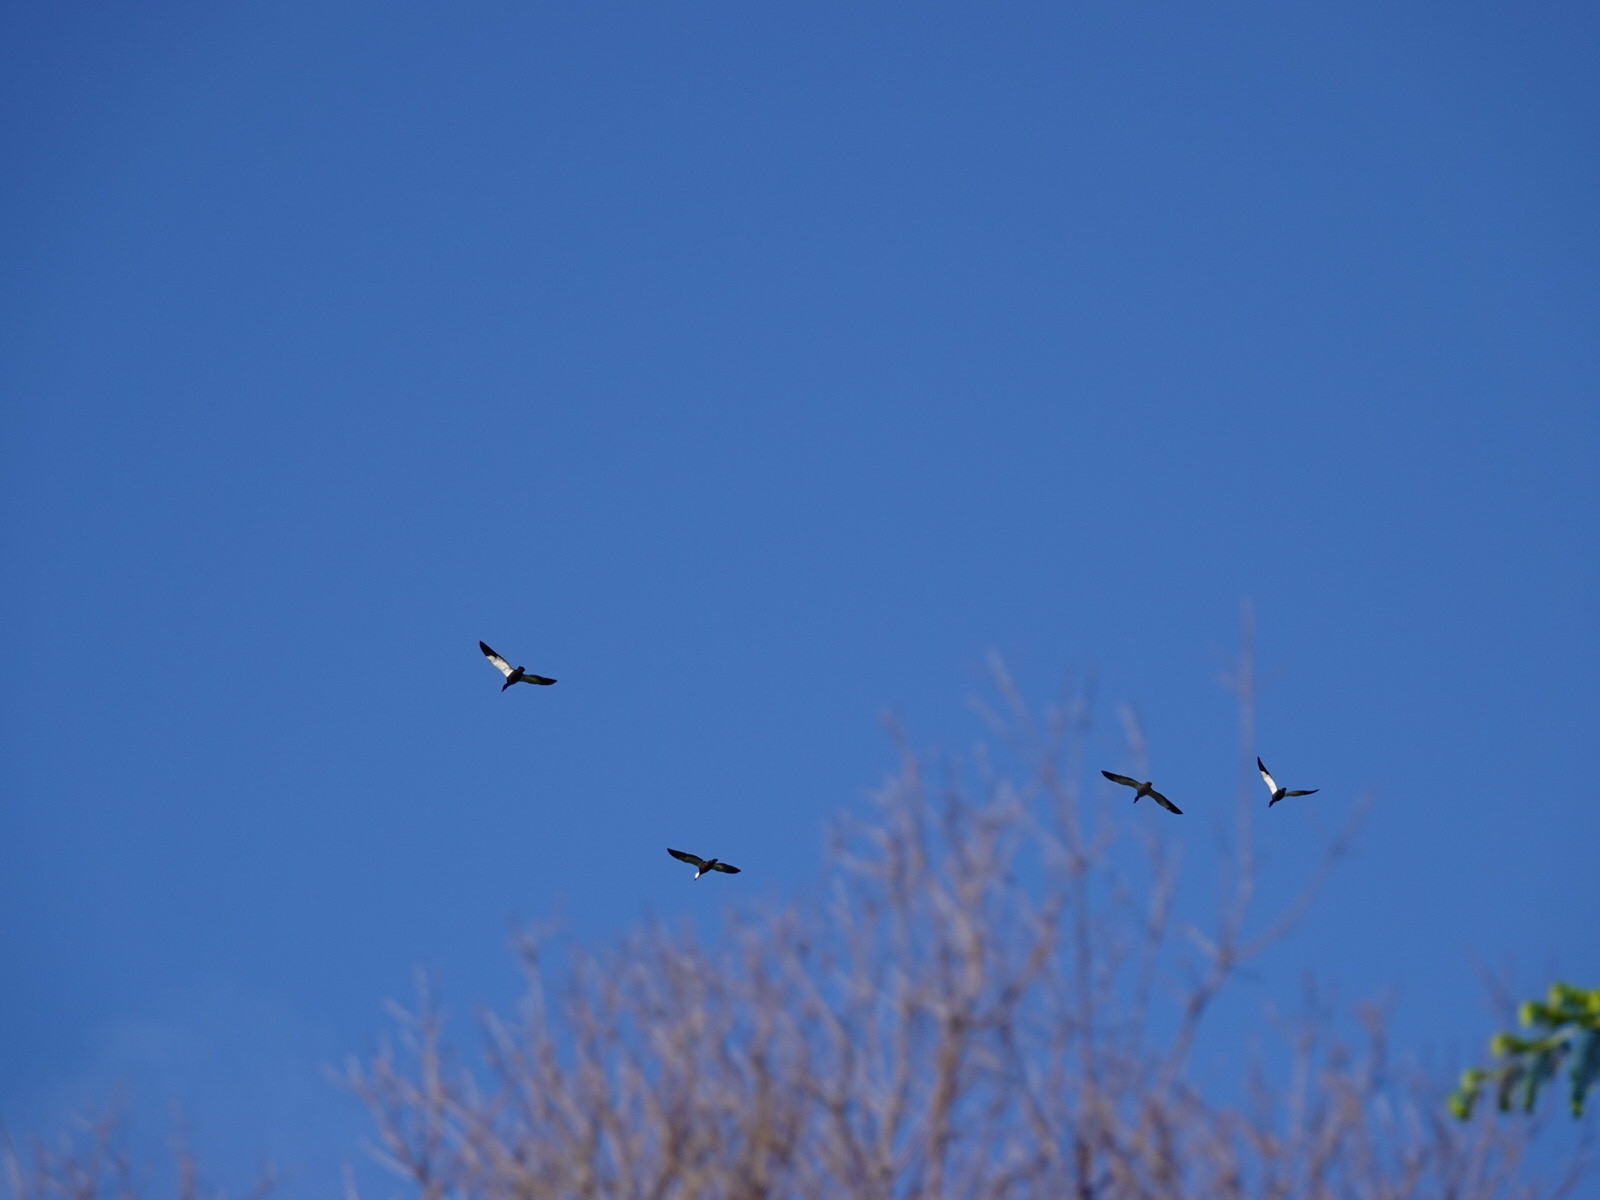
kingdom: Animalia
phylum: Chordata
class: Aves
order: Anseriformes
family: Anatidae
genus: Tadorna
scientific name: Tadorna variegata
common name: Paradise shelduck
